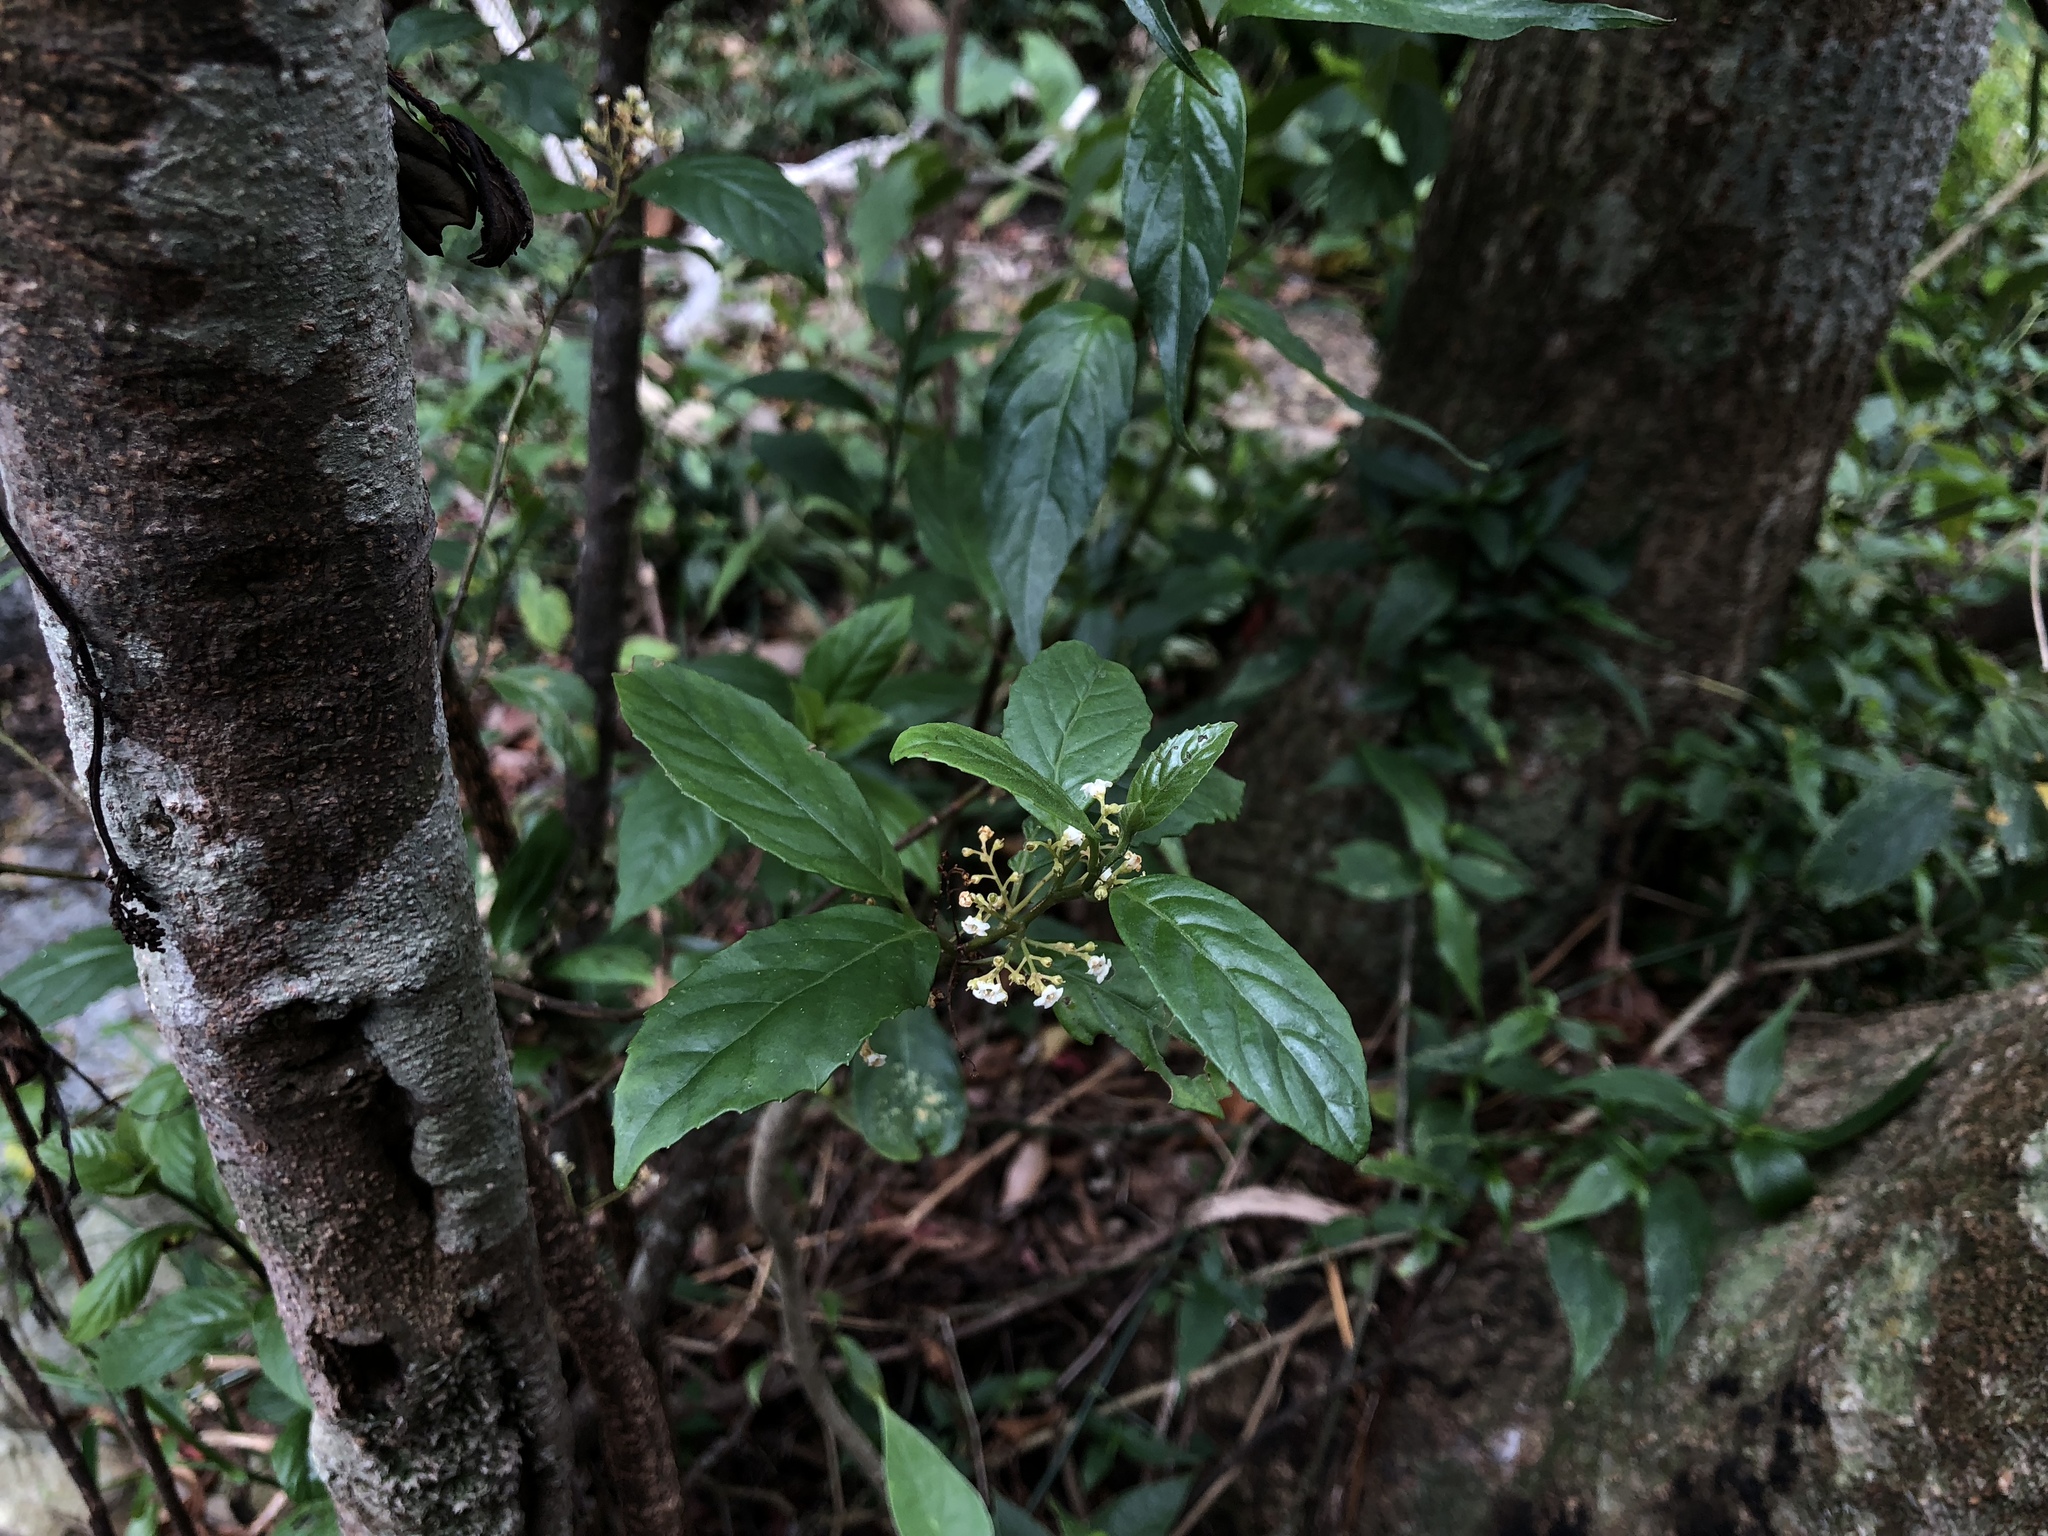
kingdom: Plantae
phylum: Tracheophyta
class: Magnoliopsida
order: Ericales
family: Primulaceae
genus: Maesa
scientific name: Maesa perlaria
